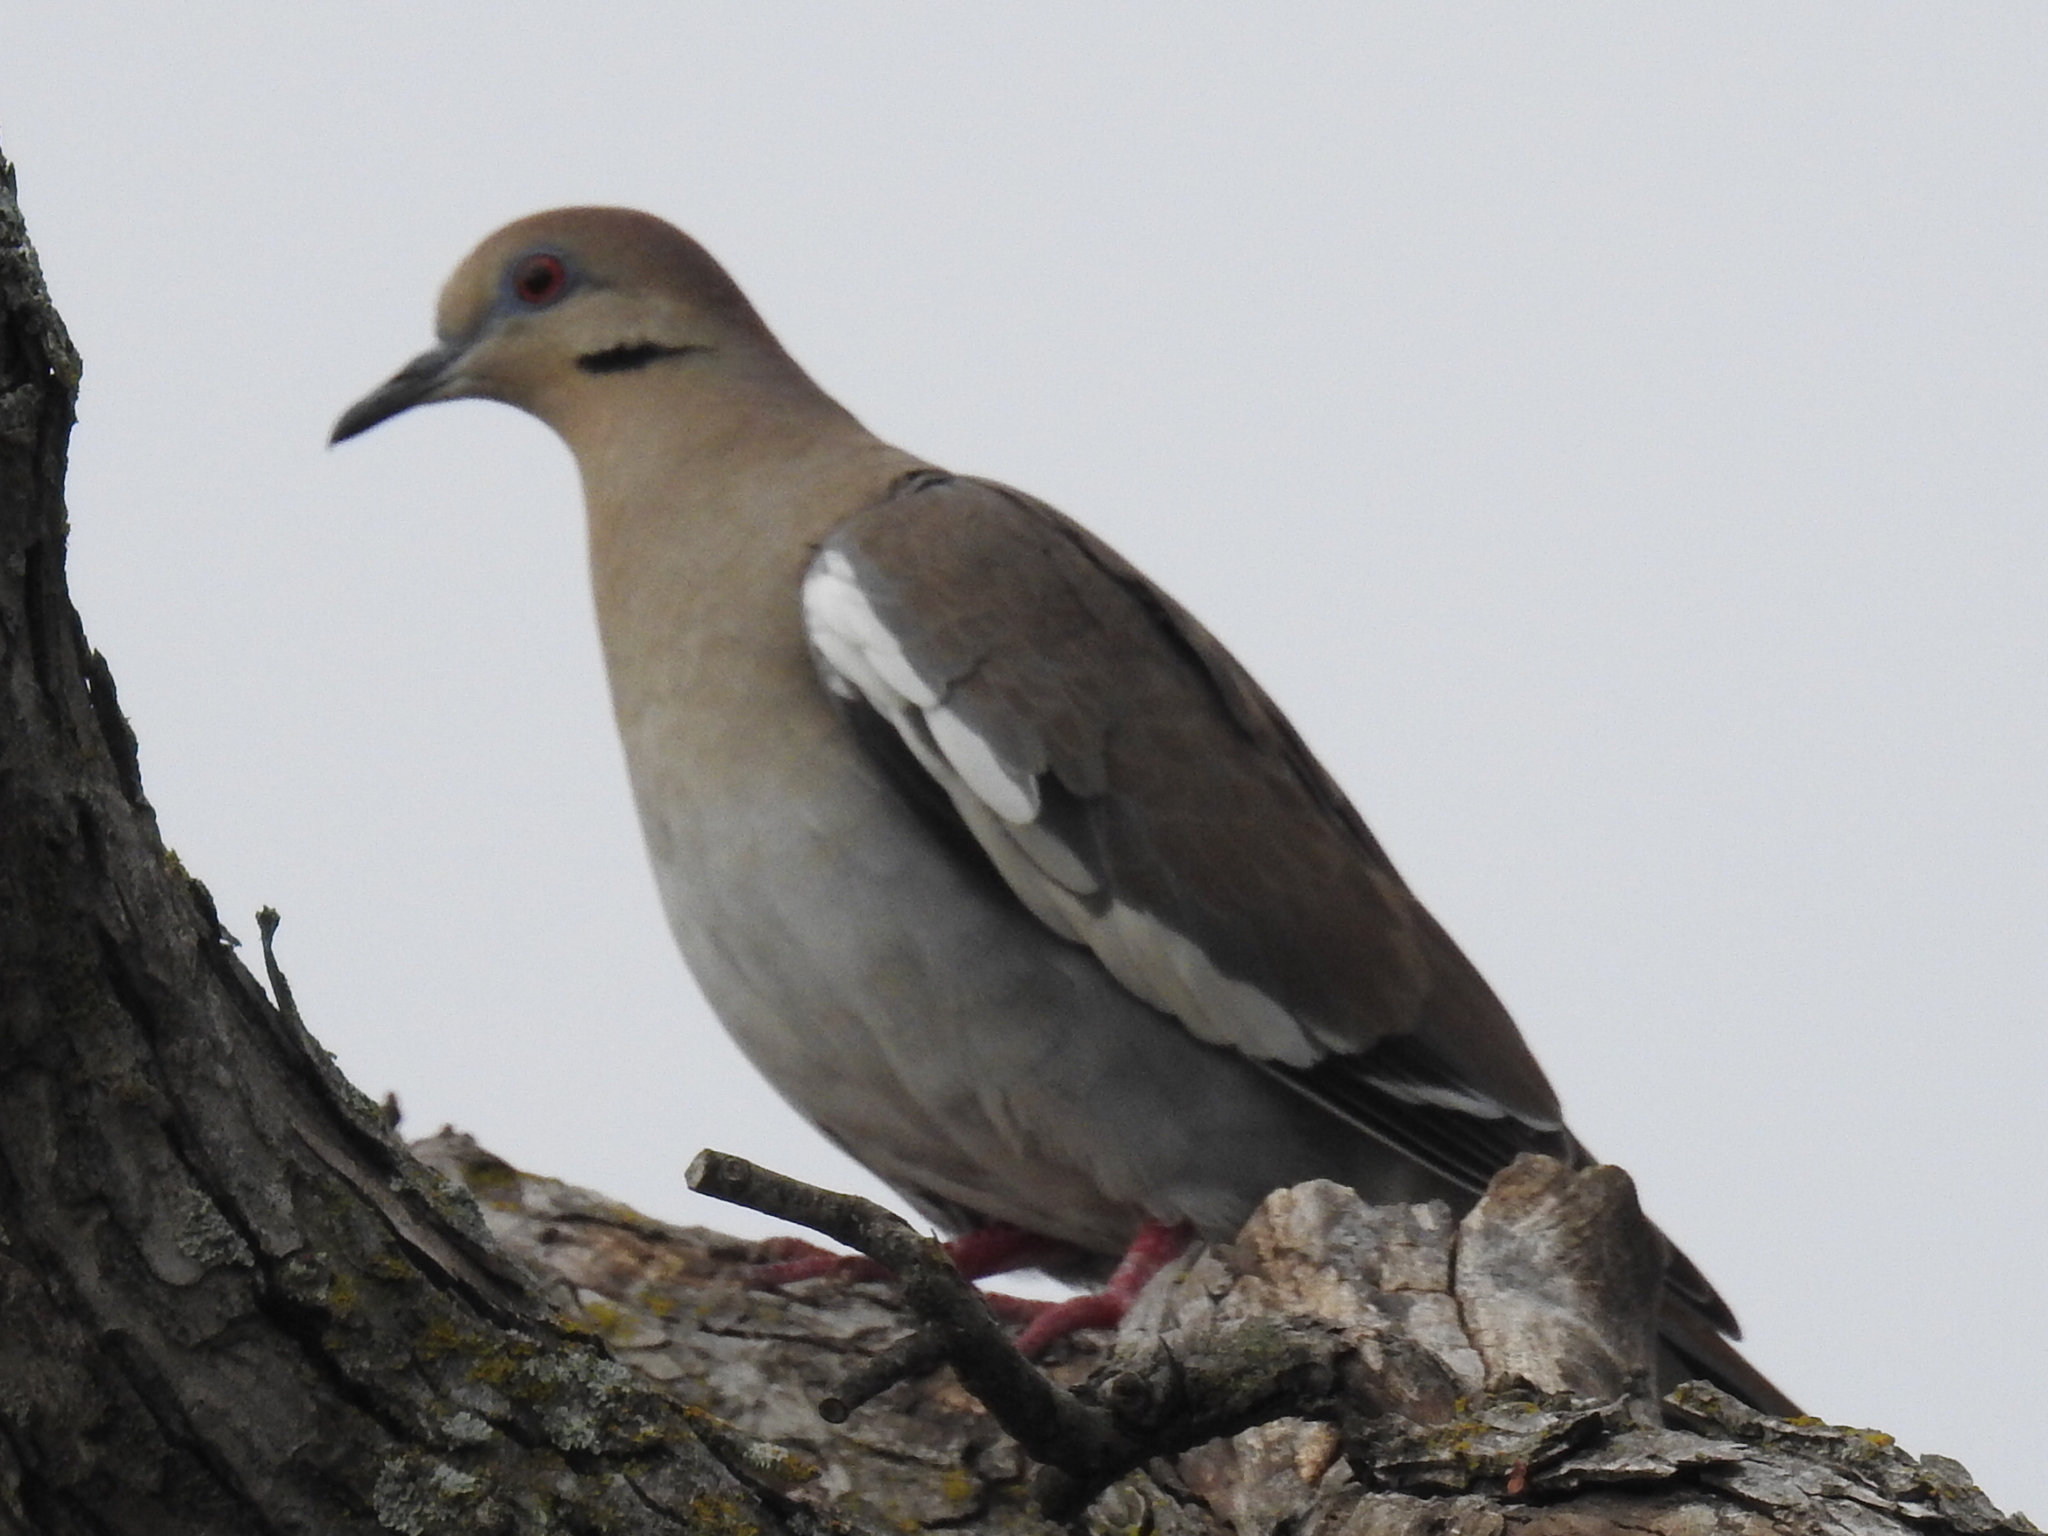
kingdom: Animalia
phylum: Chordata
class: Aves
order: Columbiformes
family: Columbidae
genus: Zenaida
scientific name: Zenaida asiatica
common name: White-winged dove
